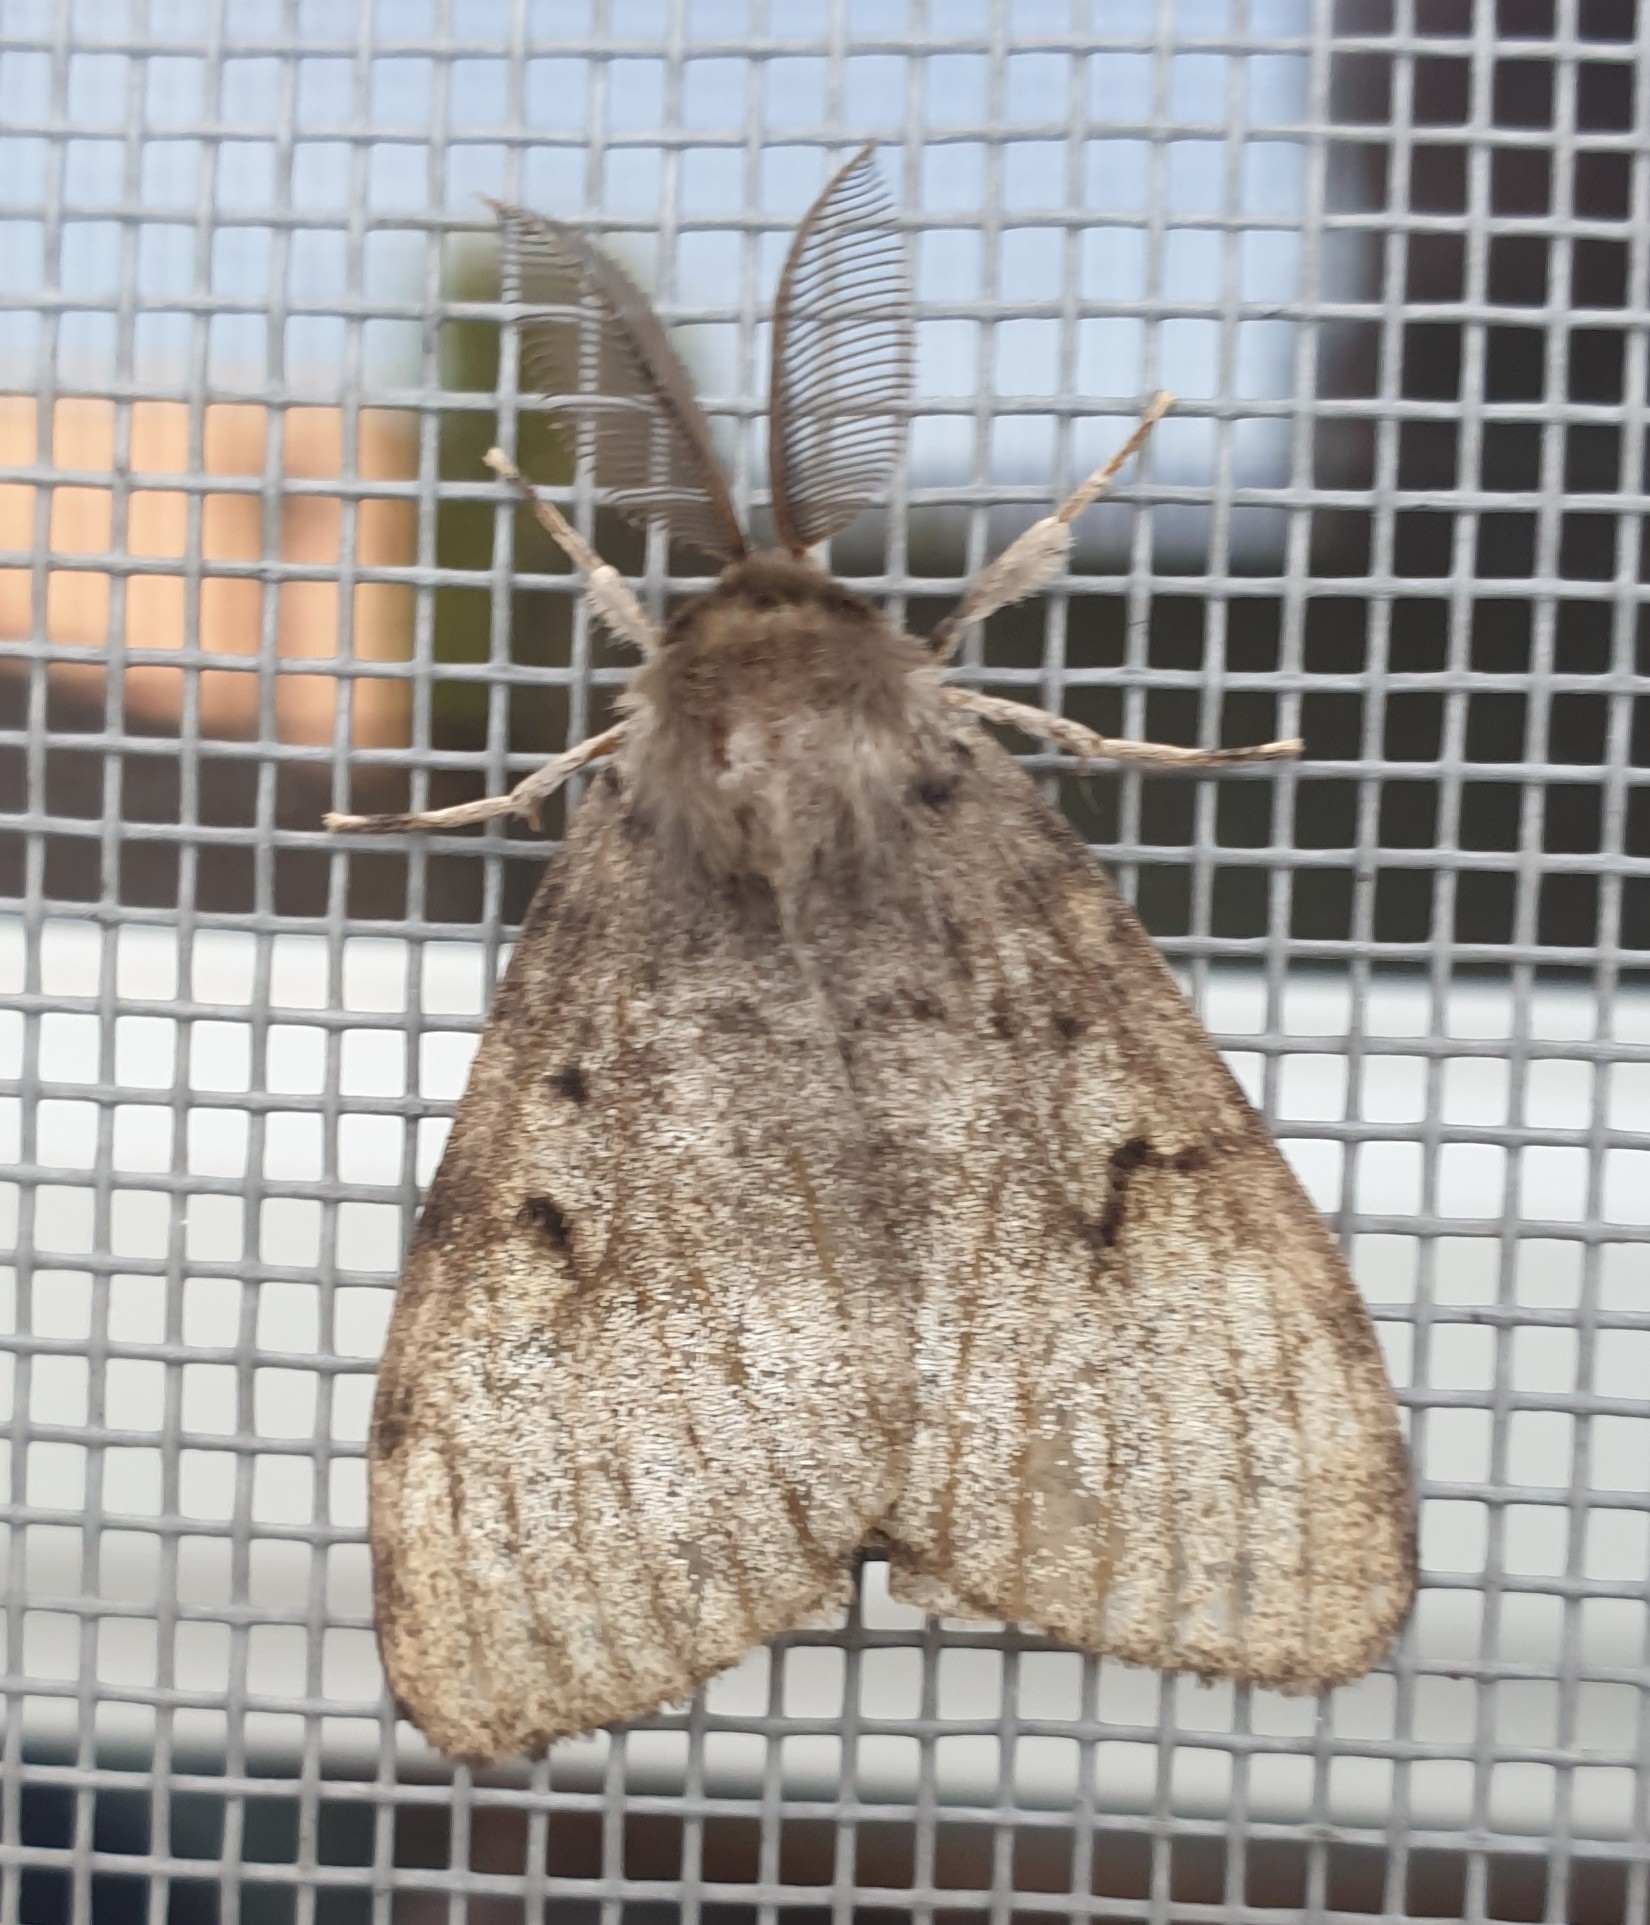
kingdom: Animalia
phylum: Arthropoda
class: Insecta
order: Lepidoptera
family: Erebidae
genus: Lymantria
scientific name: Lymantria dispar
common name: Gypsy moth
